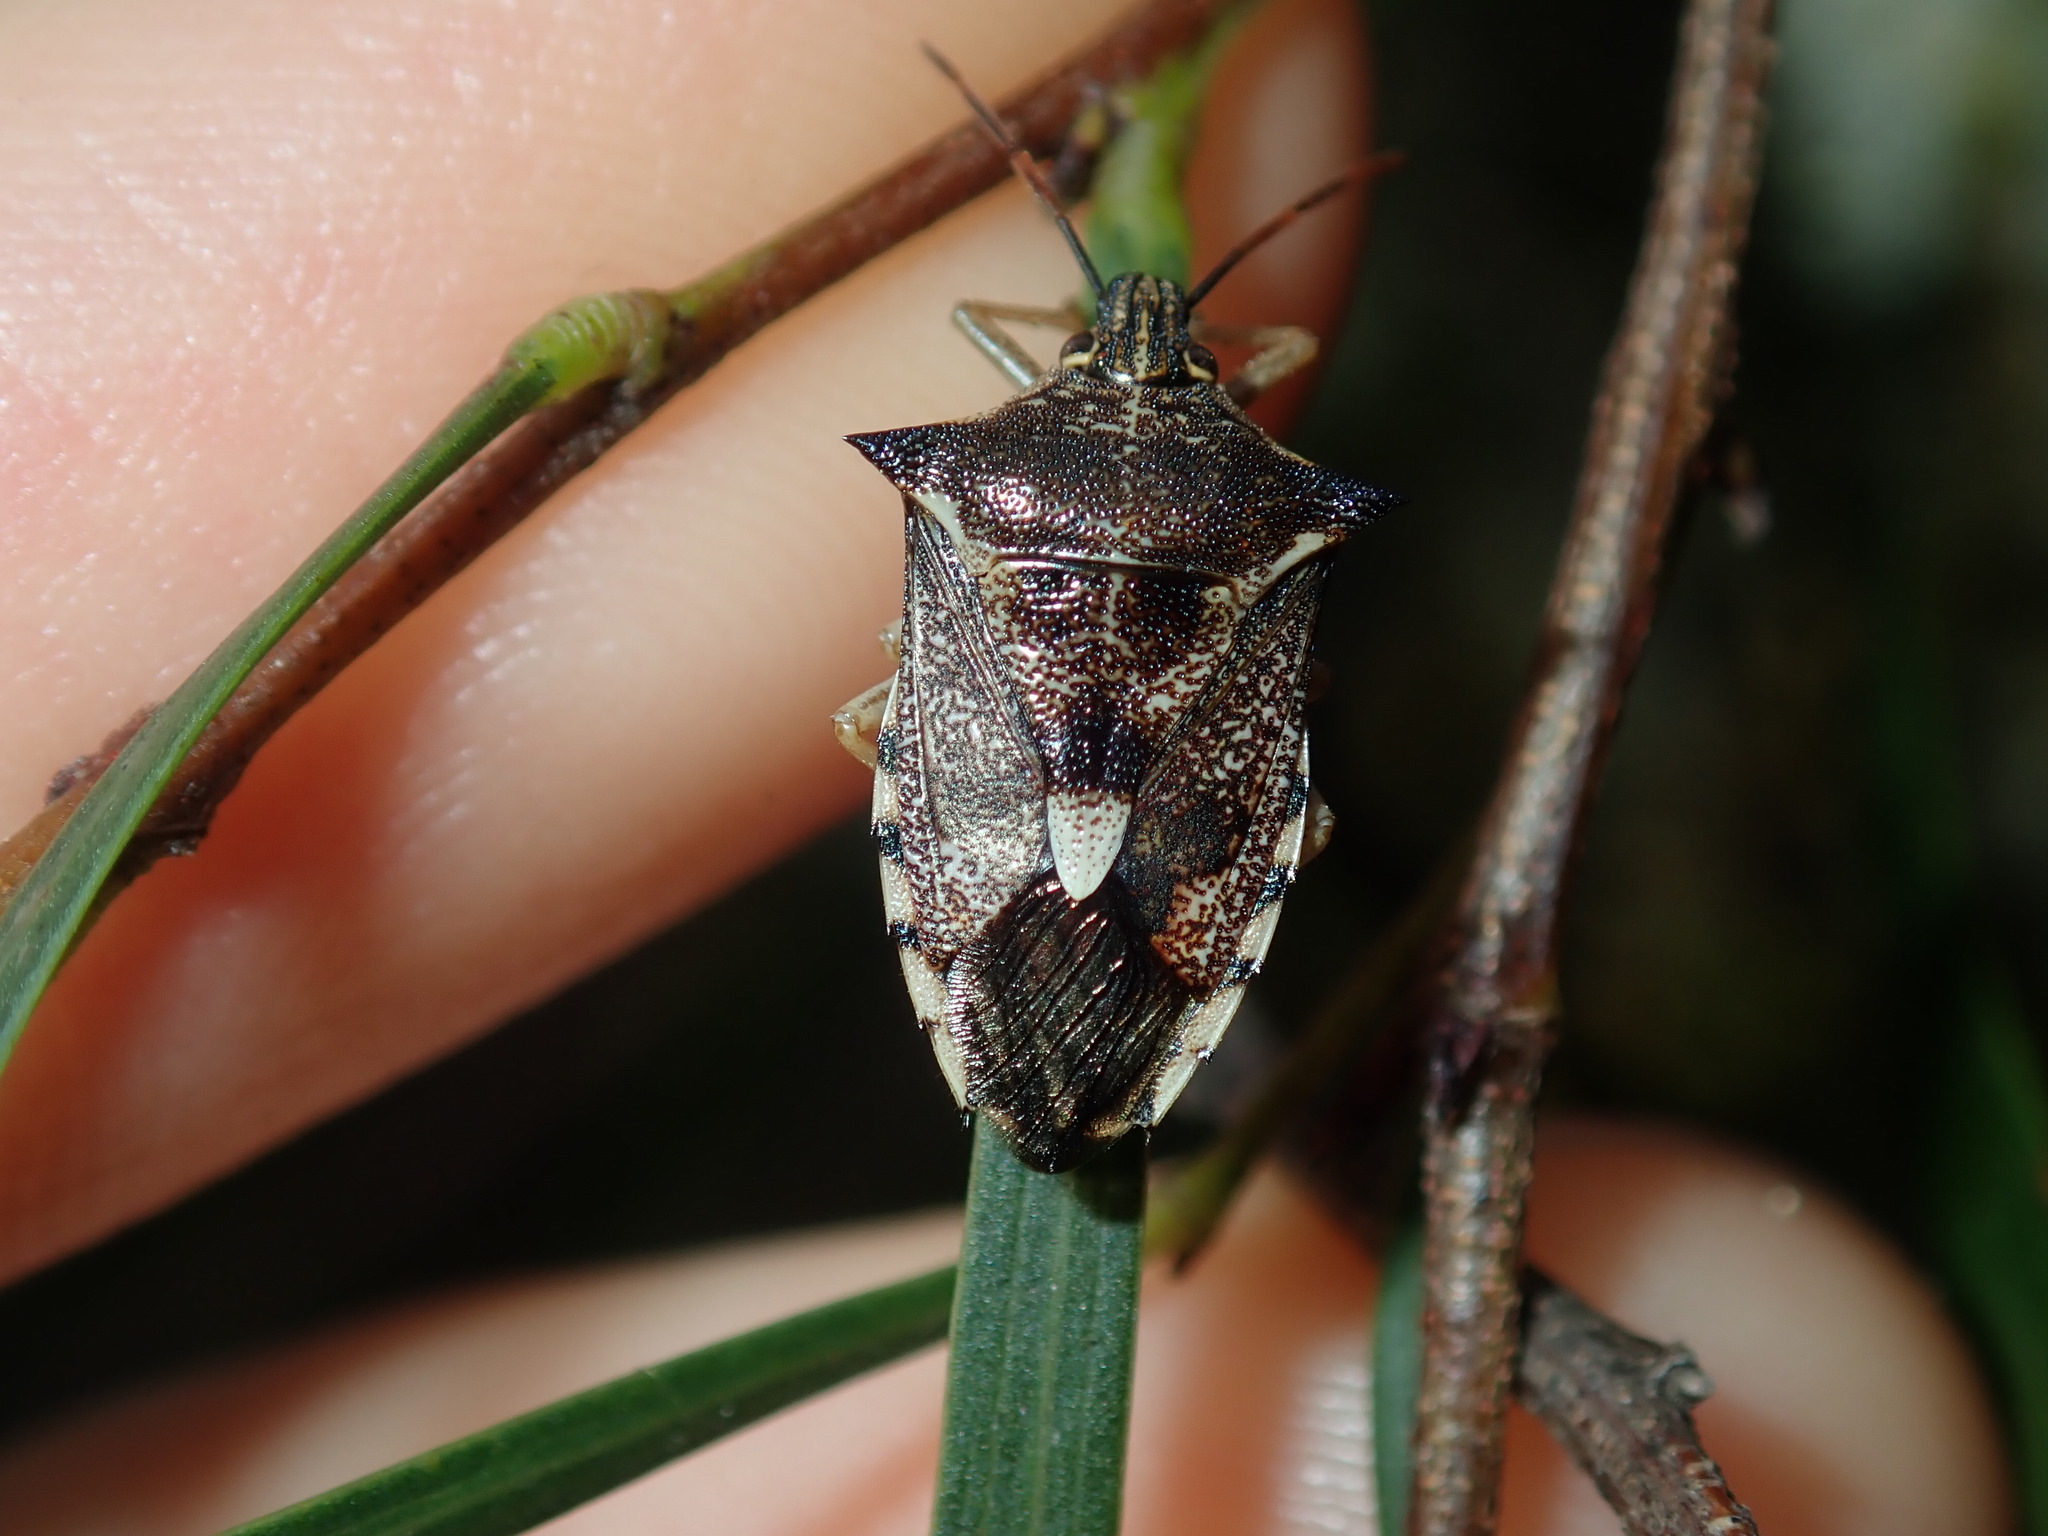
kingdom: Animalia
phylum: Arthropoda
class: Insecta
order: Hemiptera
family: Pentatomidae
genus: Oechalia
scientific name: Oechalia schellenbergii
